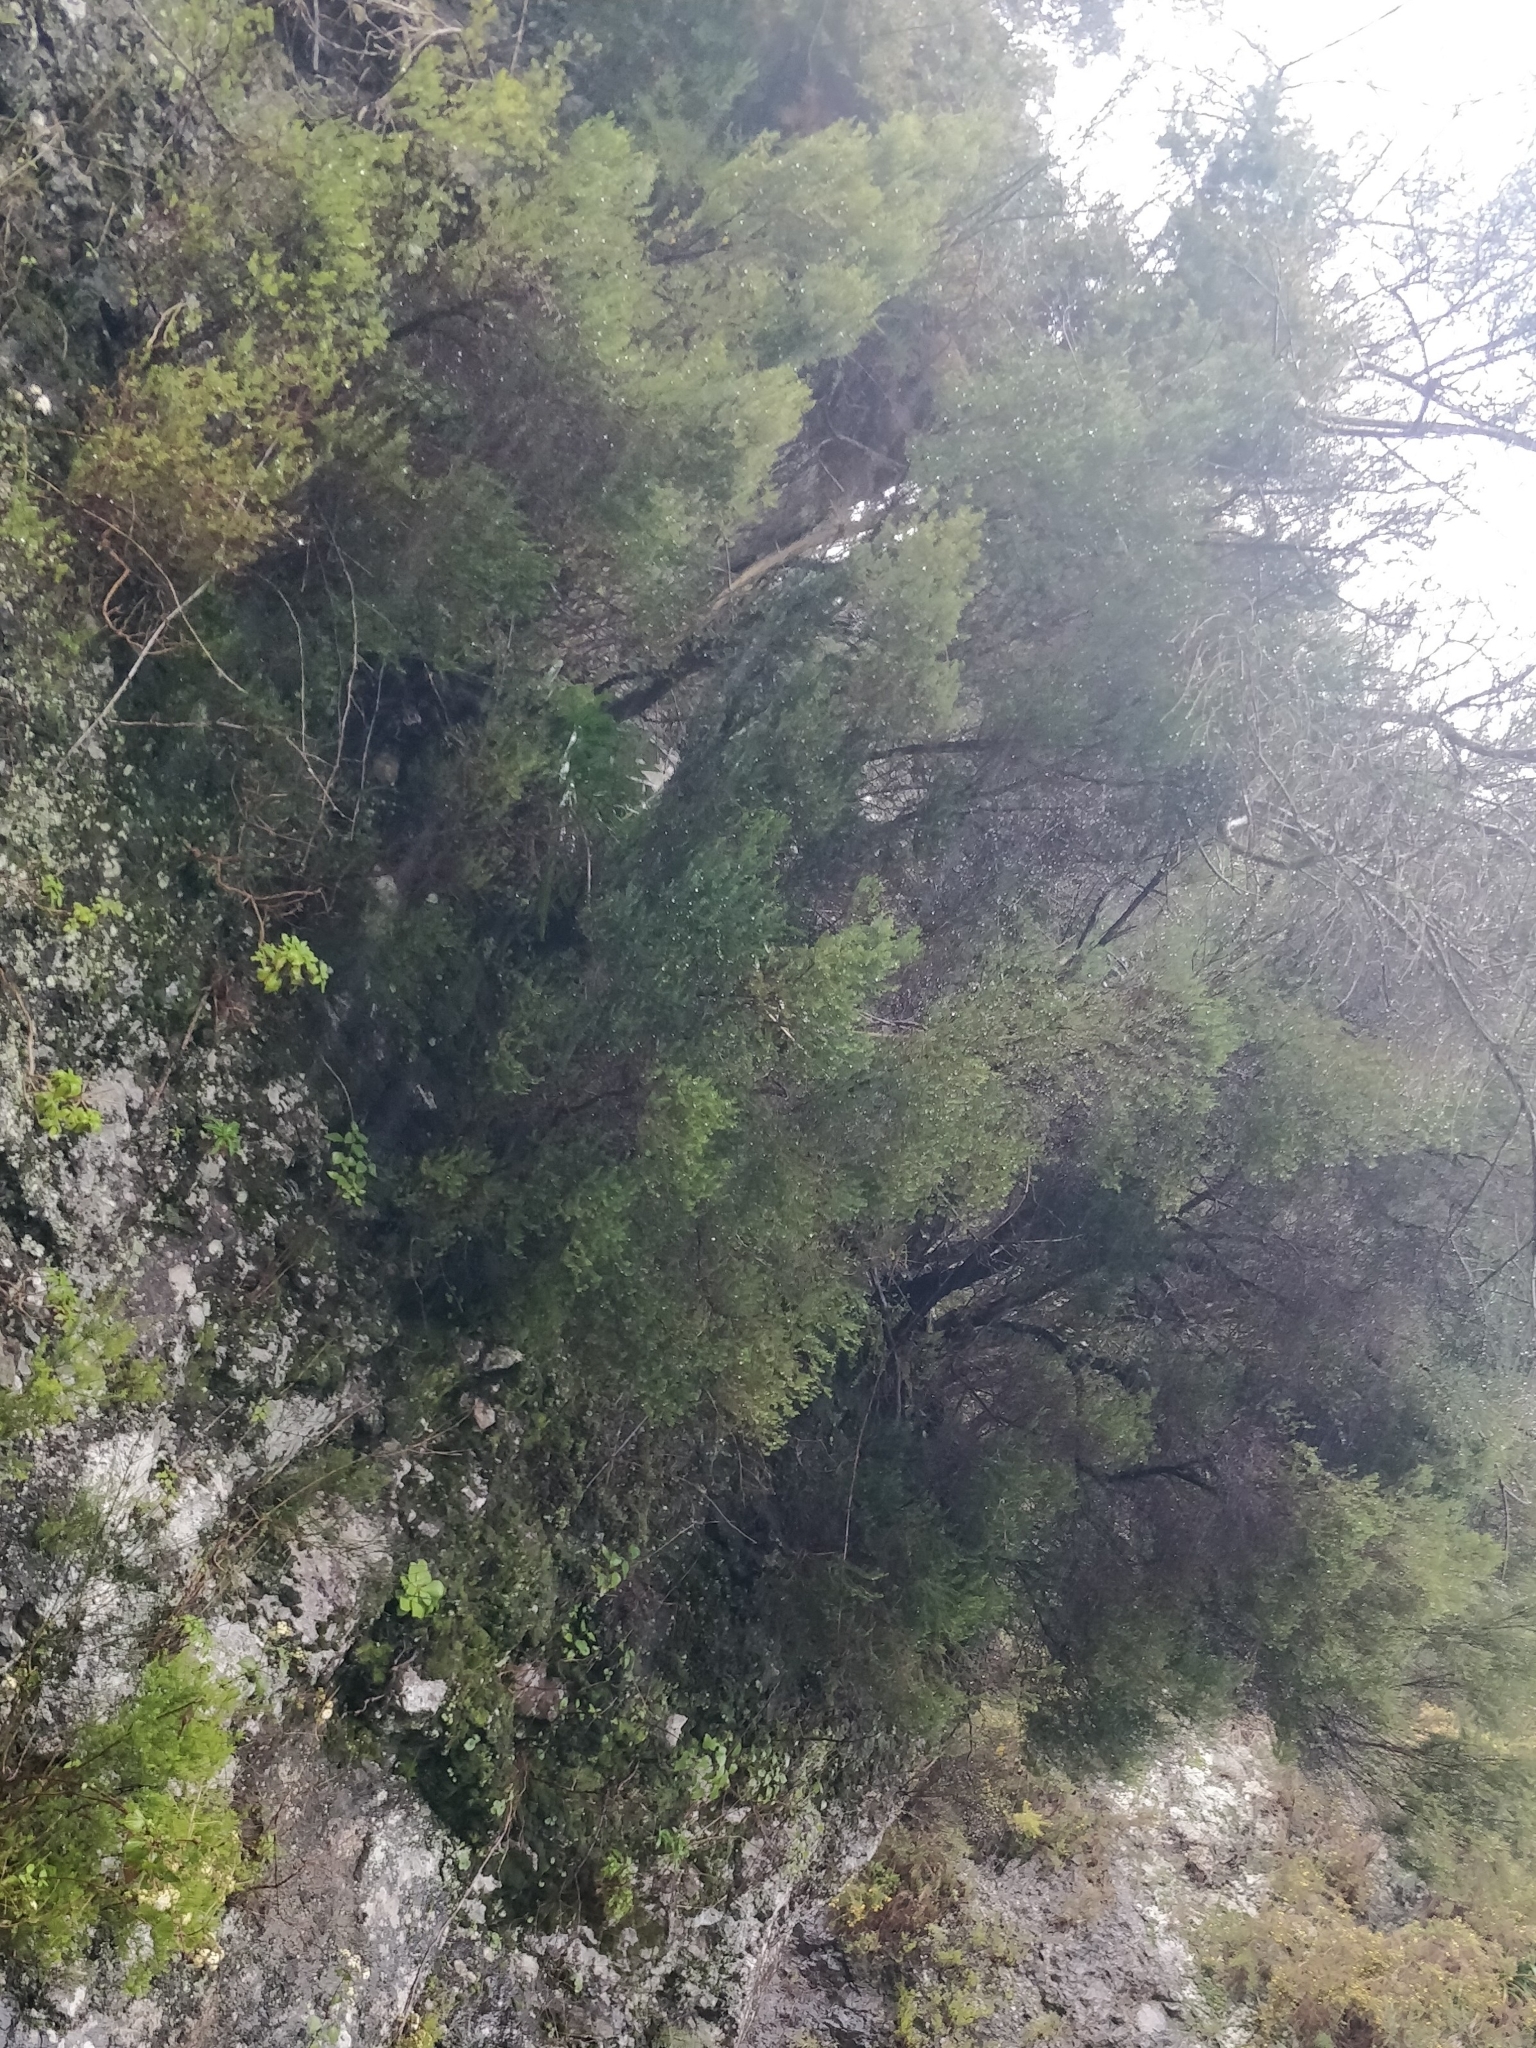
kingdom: Plantae
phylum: Tracheophyta
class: Magnoliopsida
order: Ericales
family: Ericaceae
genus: Erica
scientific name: Erica canariensis
